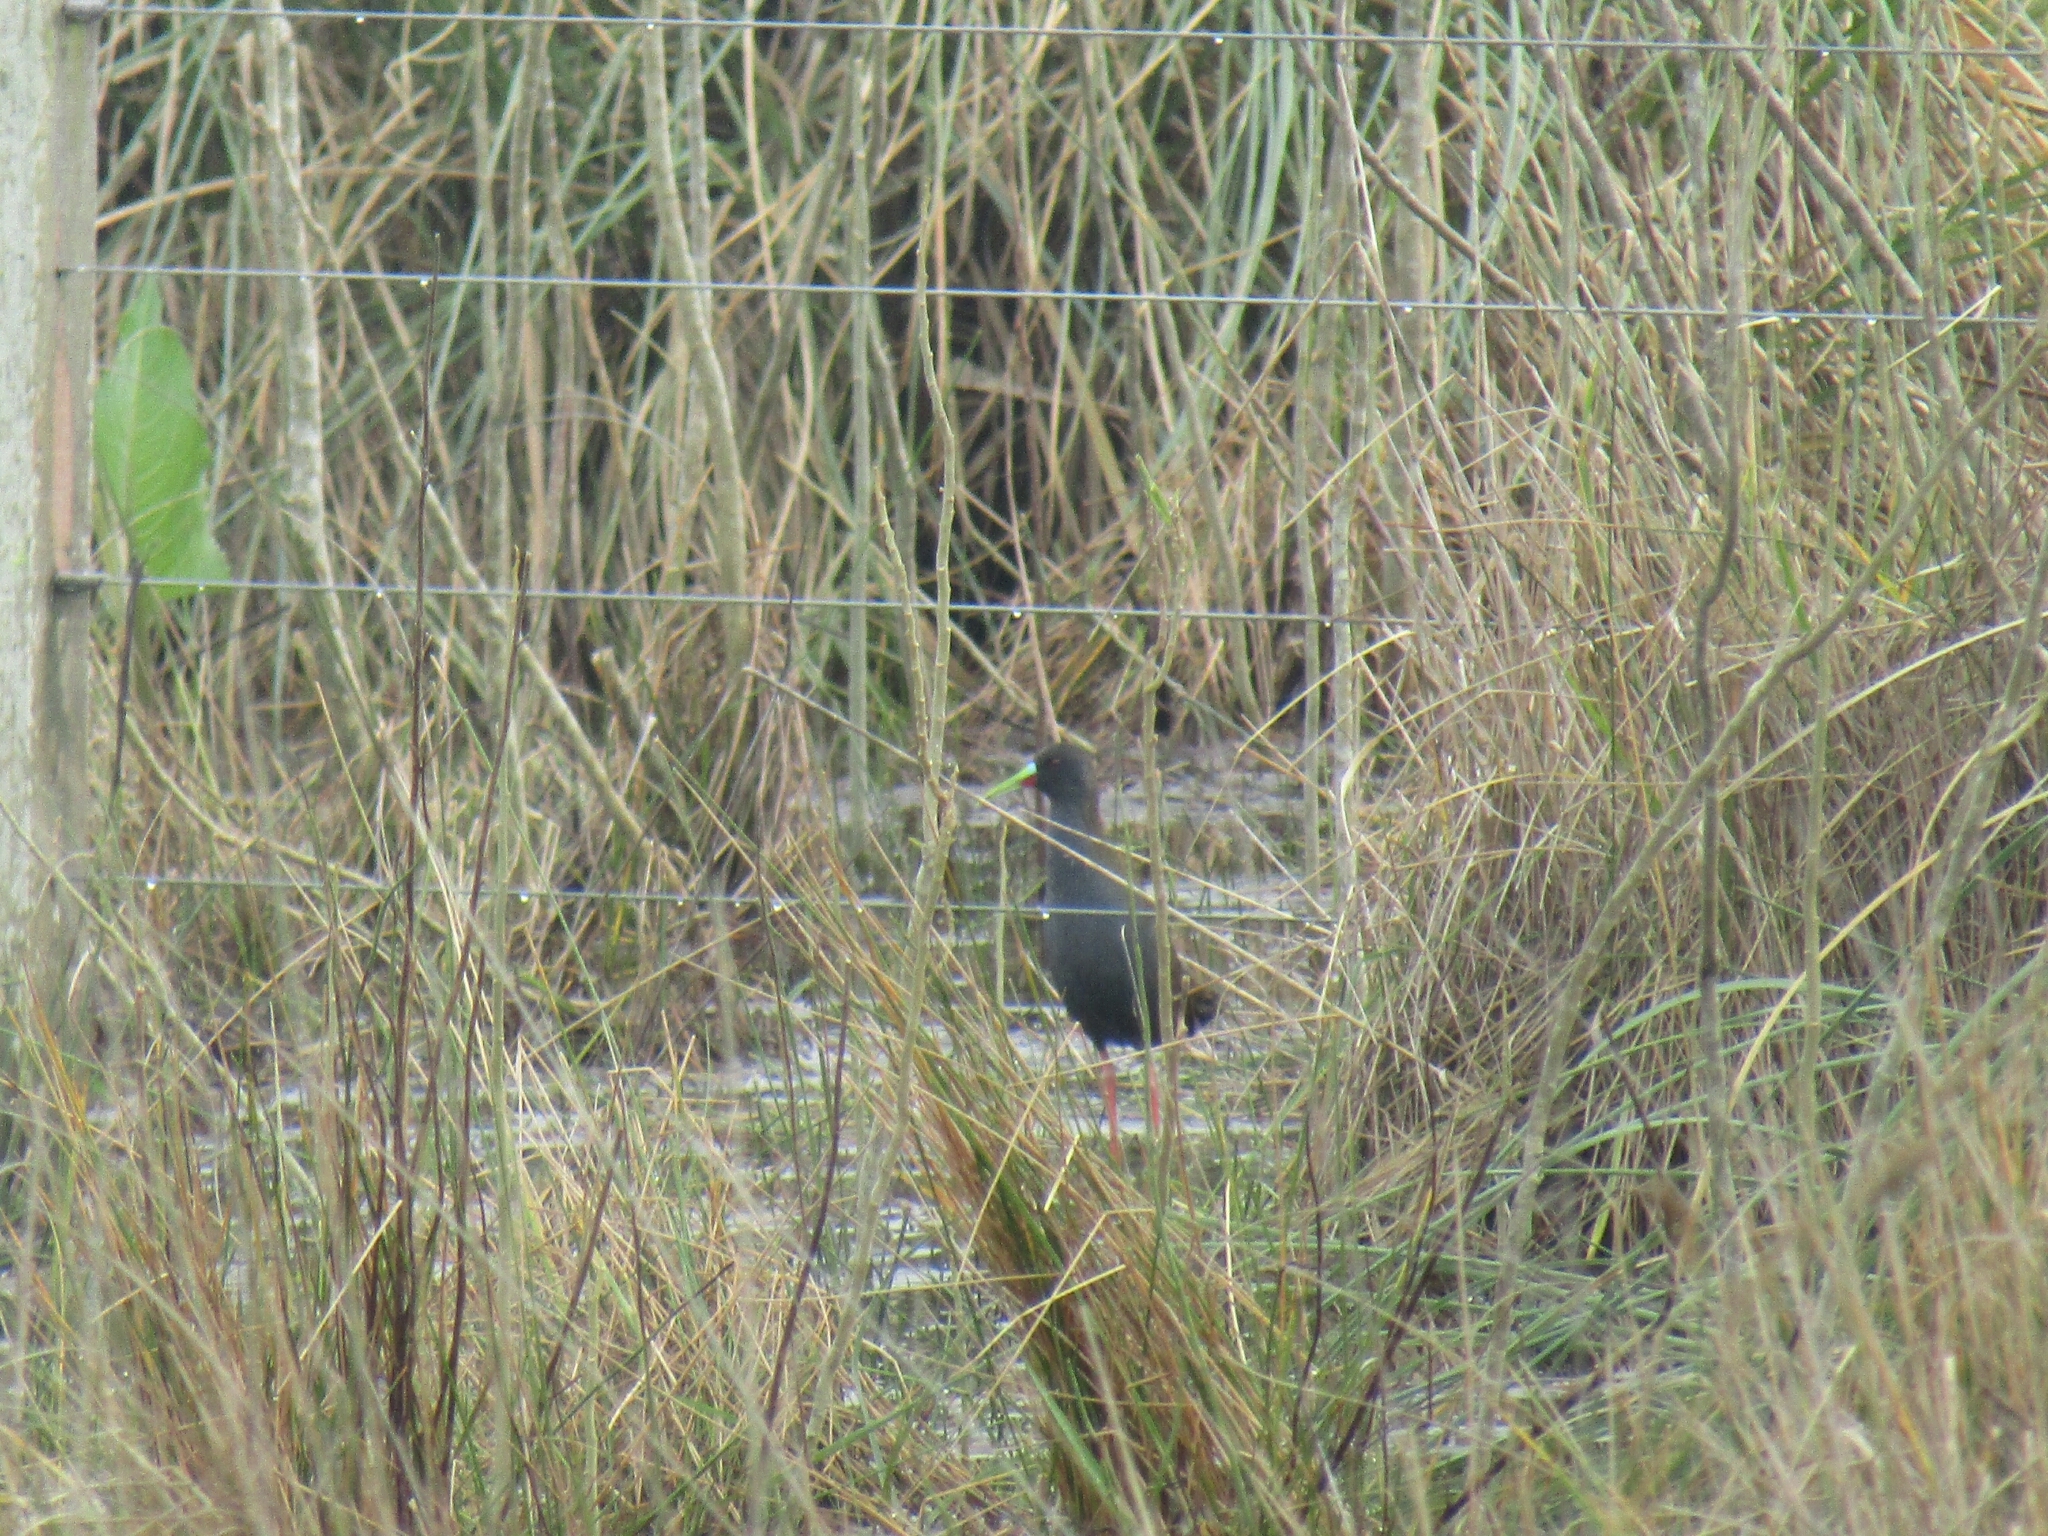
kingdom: Animalia
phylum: Chordata
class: Aves
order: Gruiformes
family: Rallidae
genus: Pardirallus
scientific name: Pardirallus sanguinolentus
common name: Plumbeous rail
